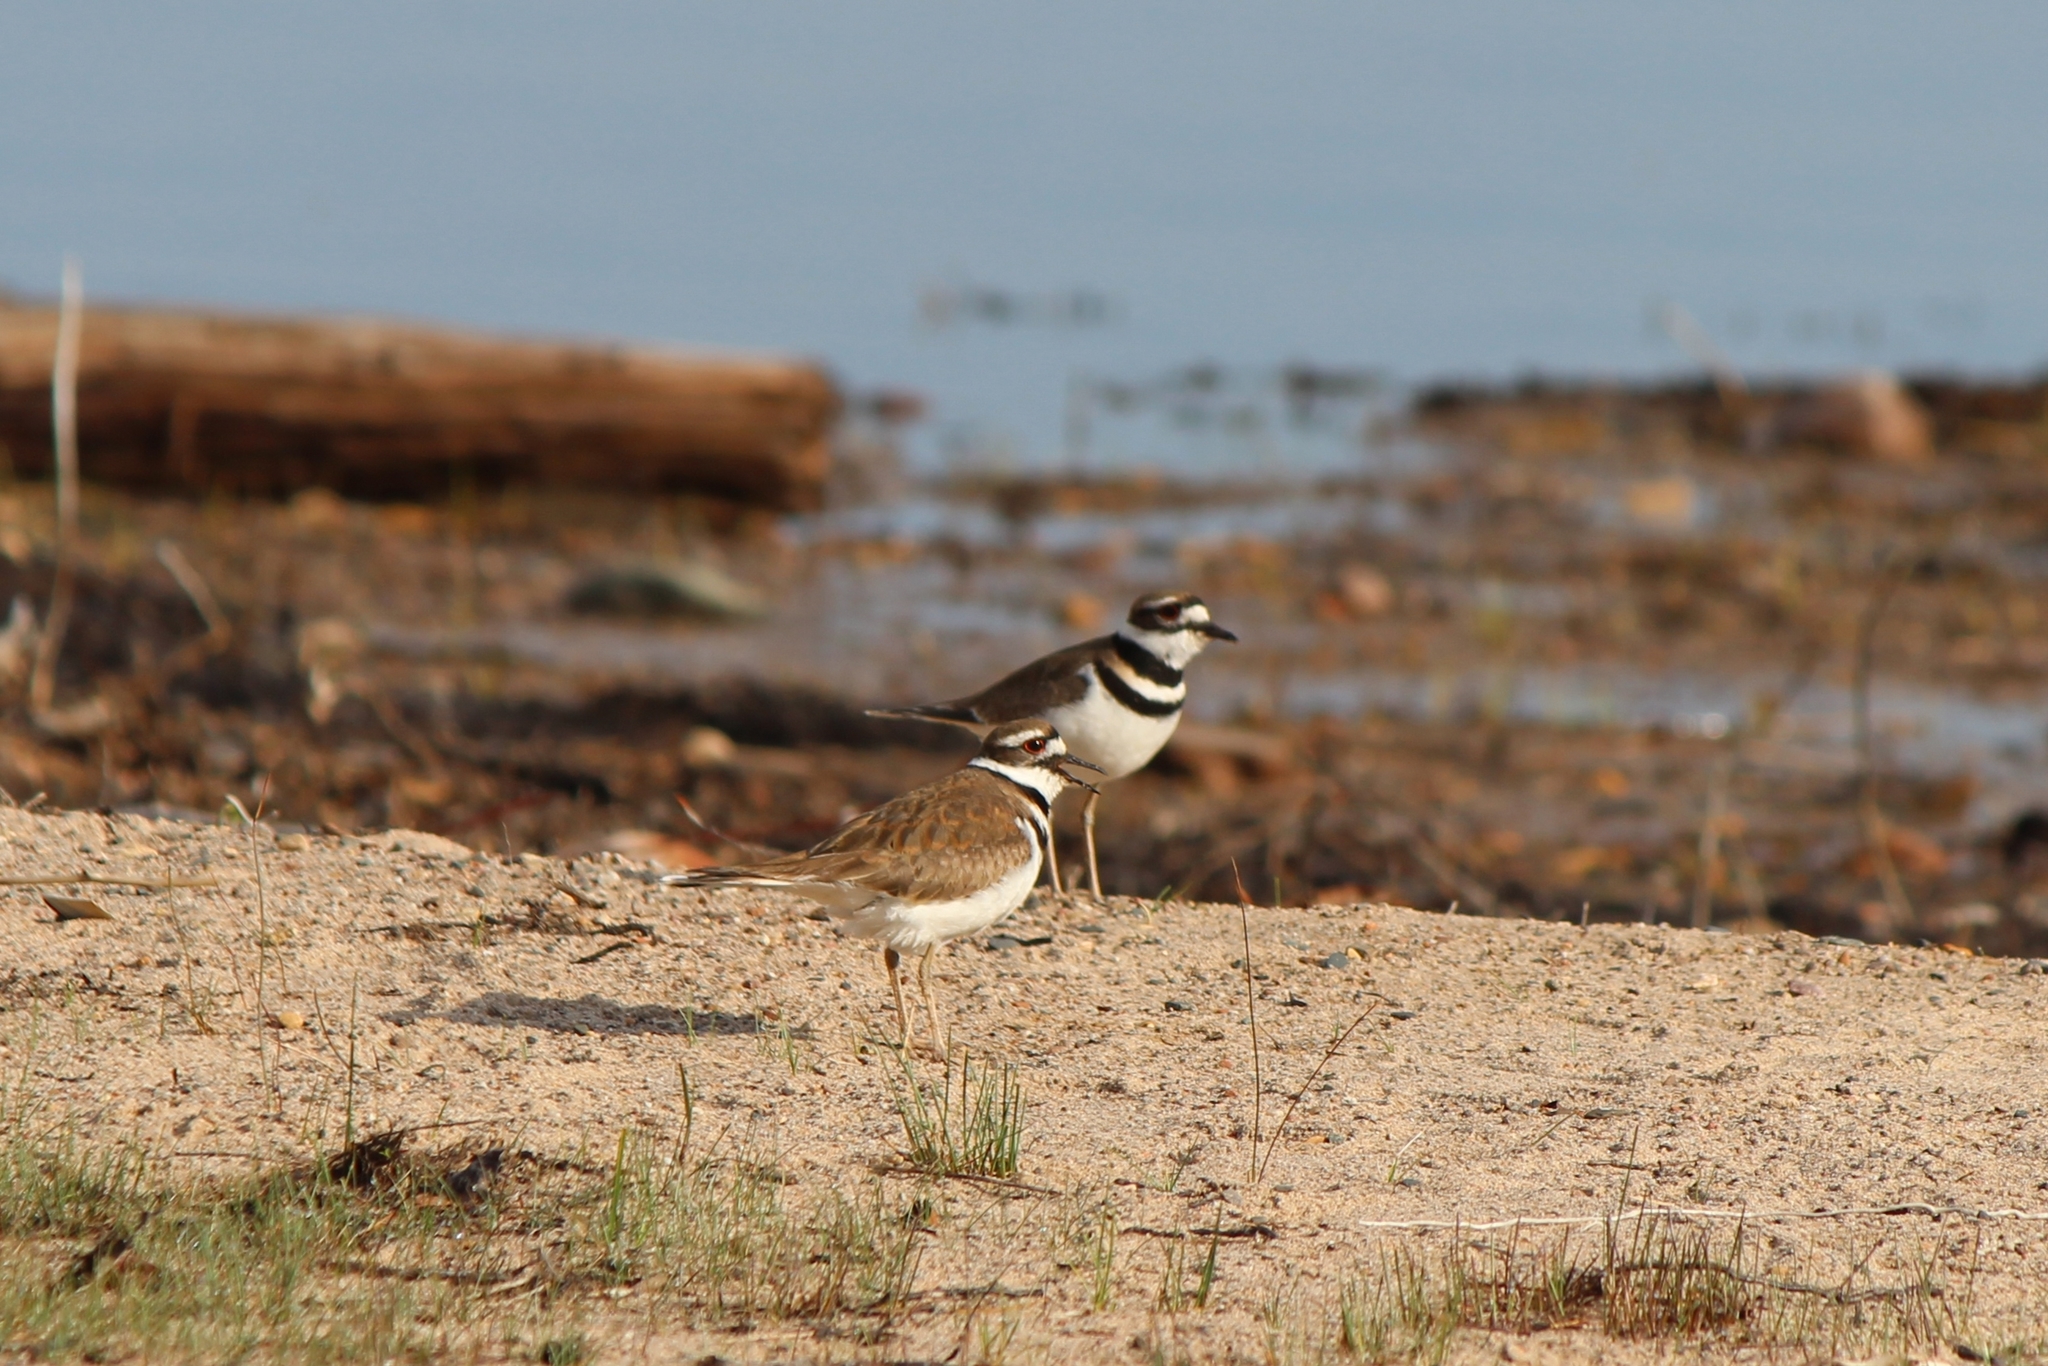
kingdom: Animalia
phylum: Chordata
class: Aves
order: Charadriiformes
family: Charadriidae
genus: Charadrius
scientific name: Charadrius vociferus
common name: Killdeer
